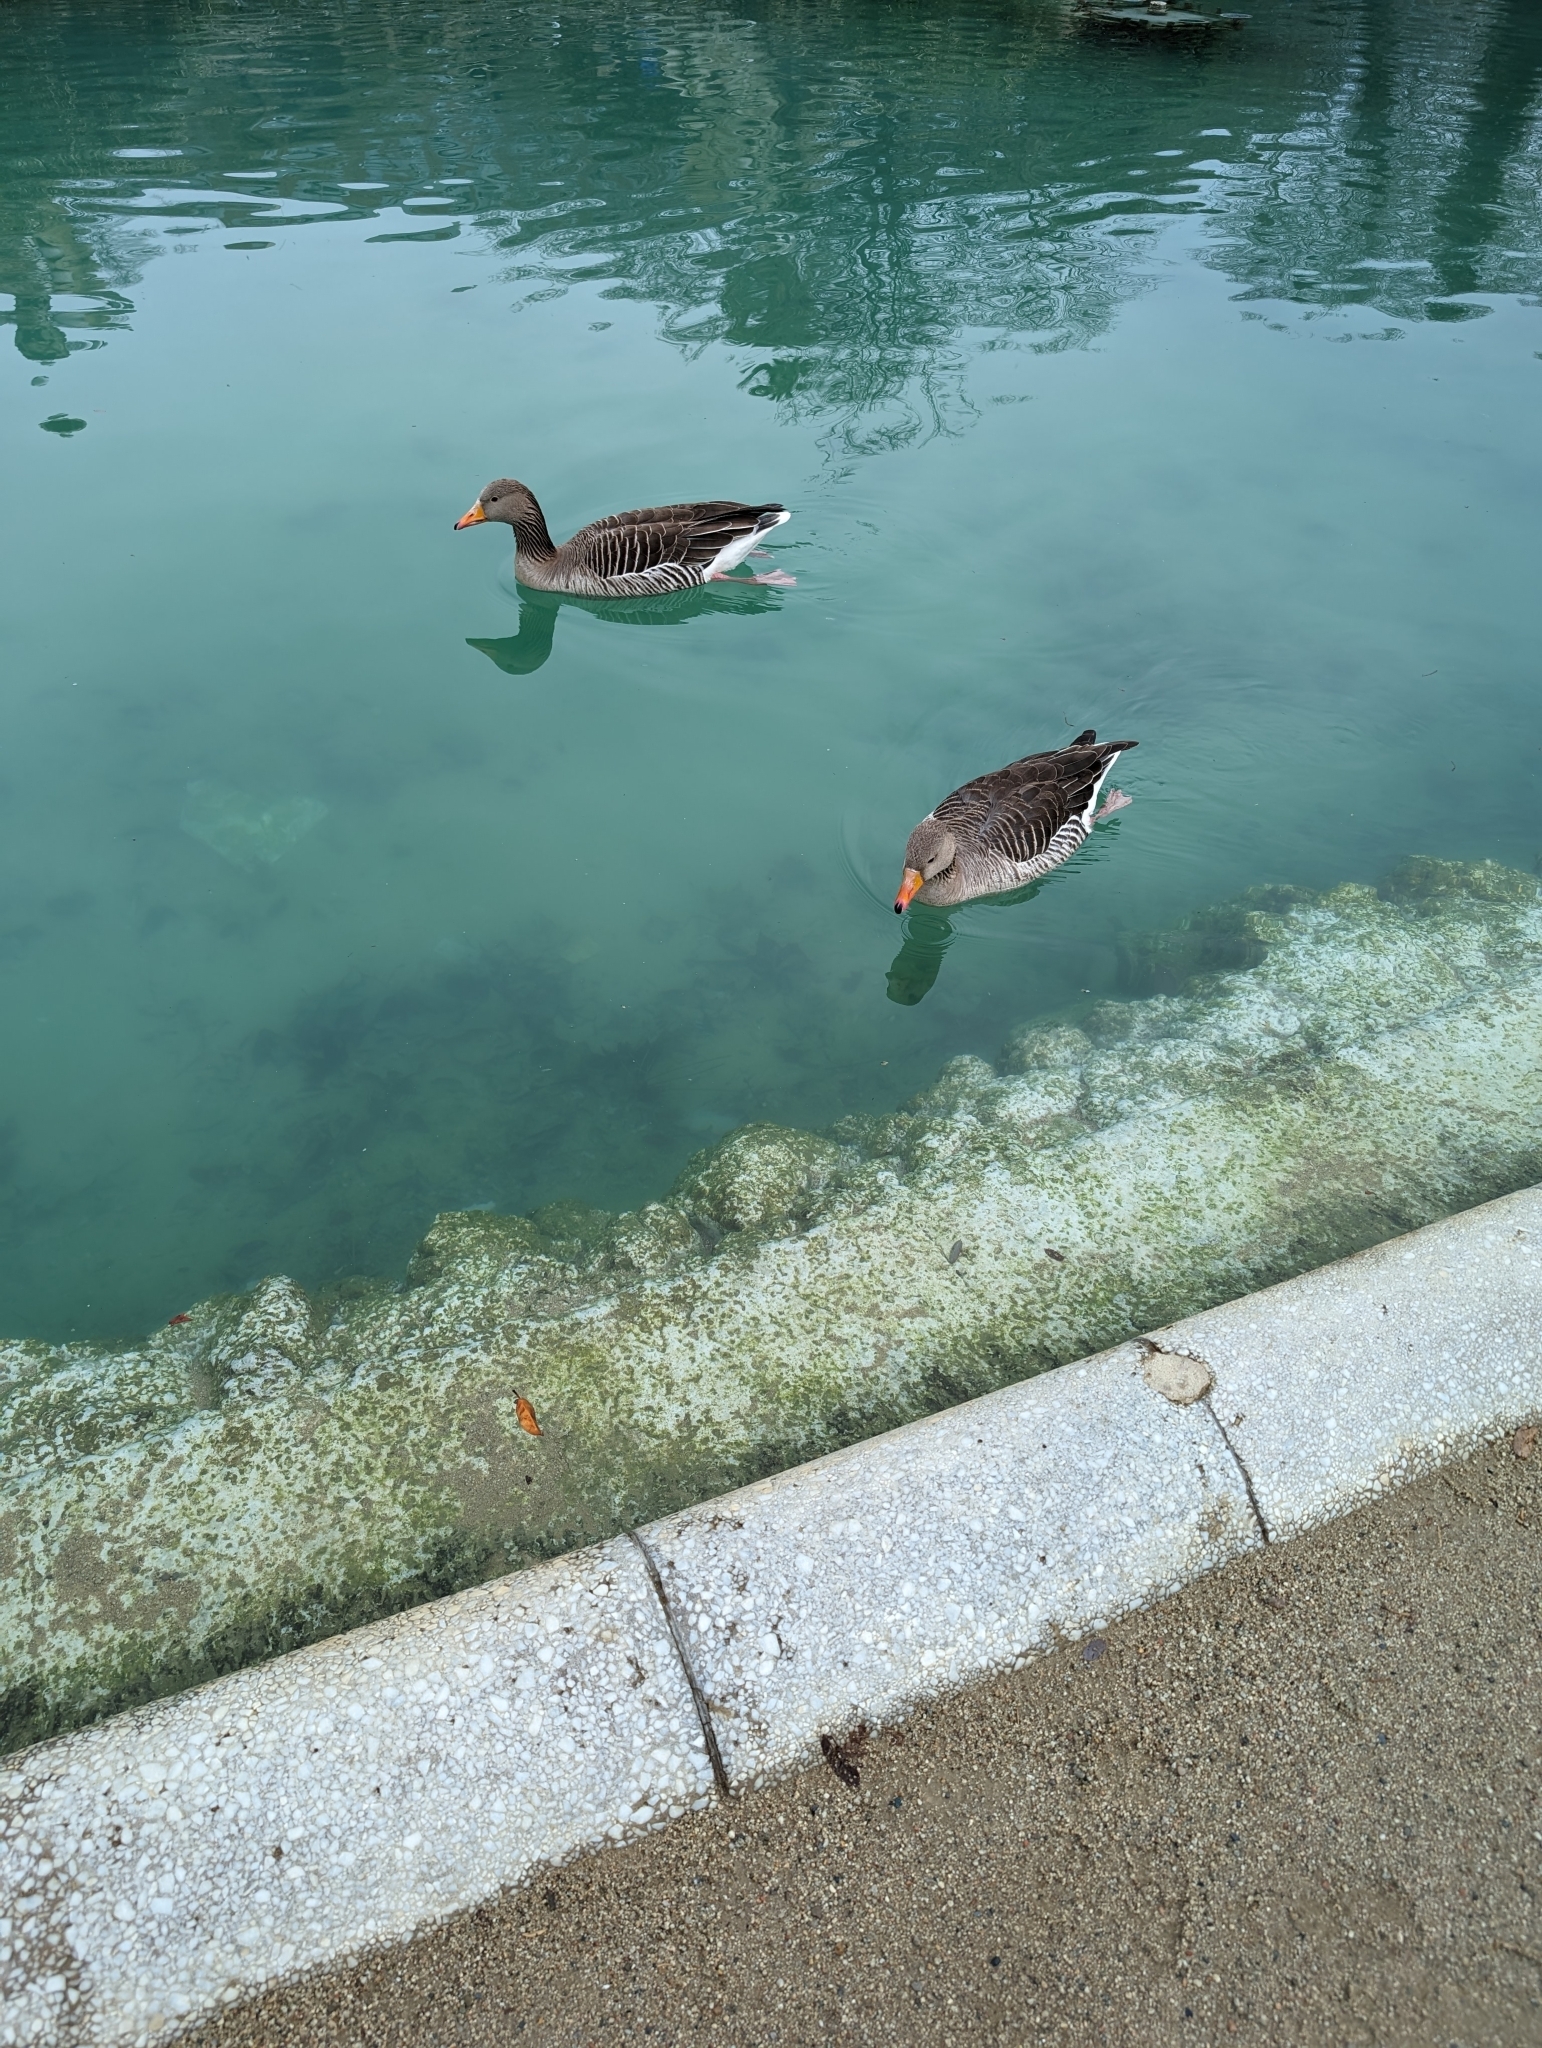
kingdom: Animalia
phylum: Chordata
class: Aves
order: Anseriformes
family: Anatidae
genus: Anser
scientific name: Anser anser
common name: Greylag goose
